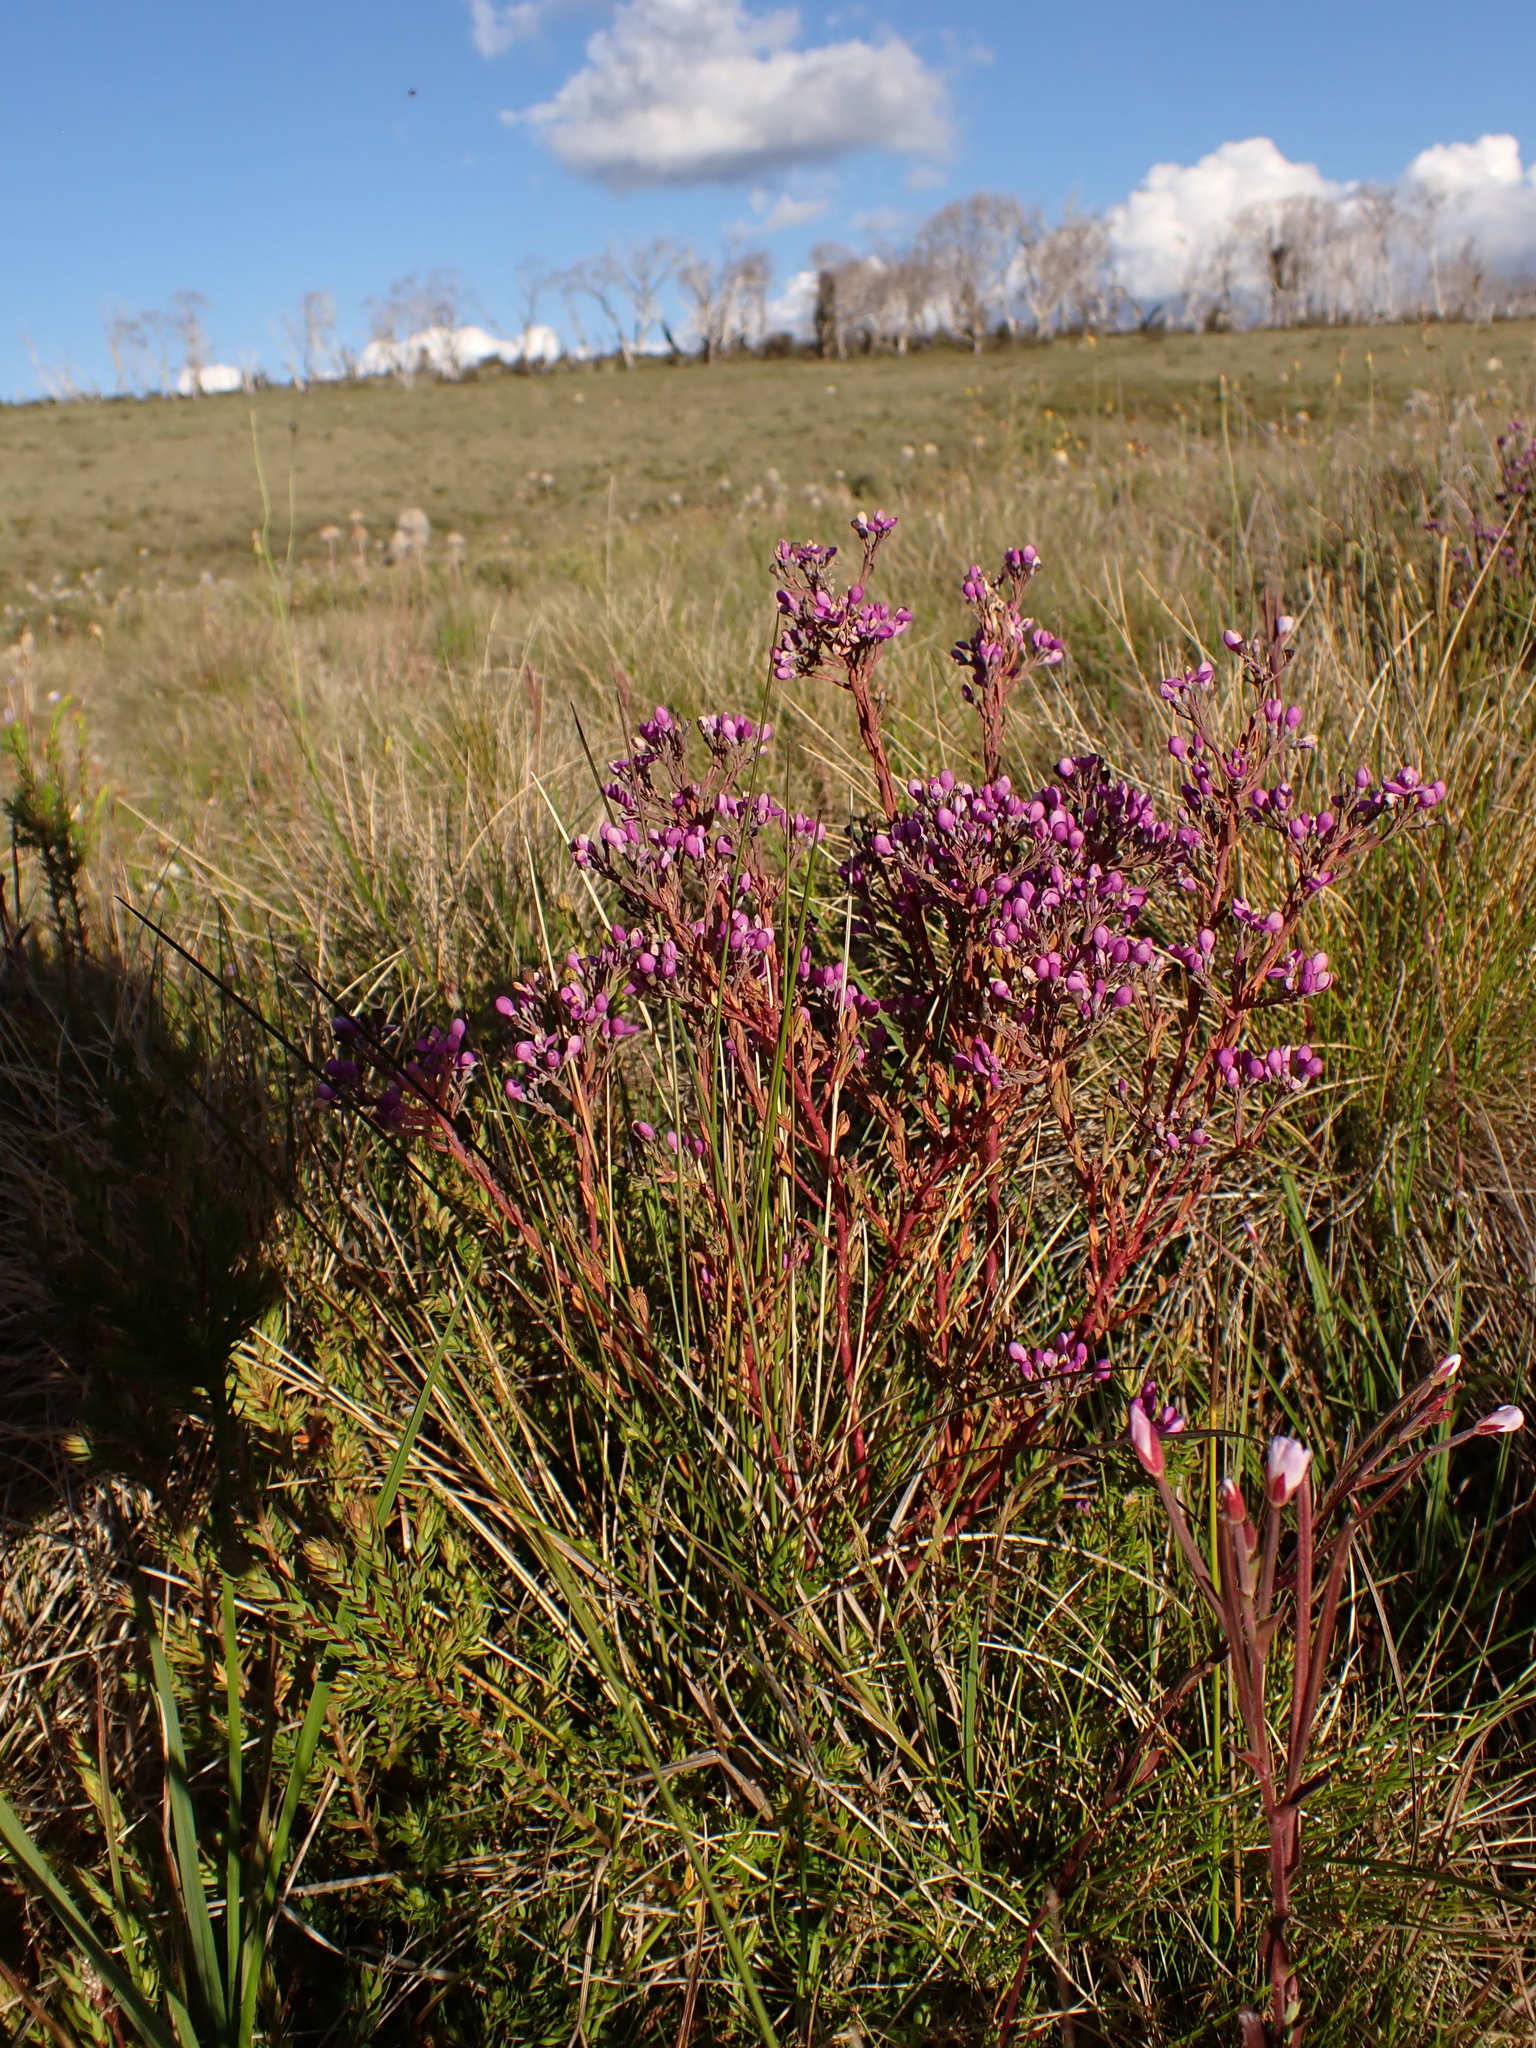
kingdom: Plantae
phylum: Tracheophyta
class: Magnoliopsida
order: Fabales
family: Polygalaceae
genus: Comesperma
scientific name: Comesperma retusum
